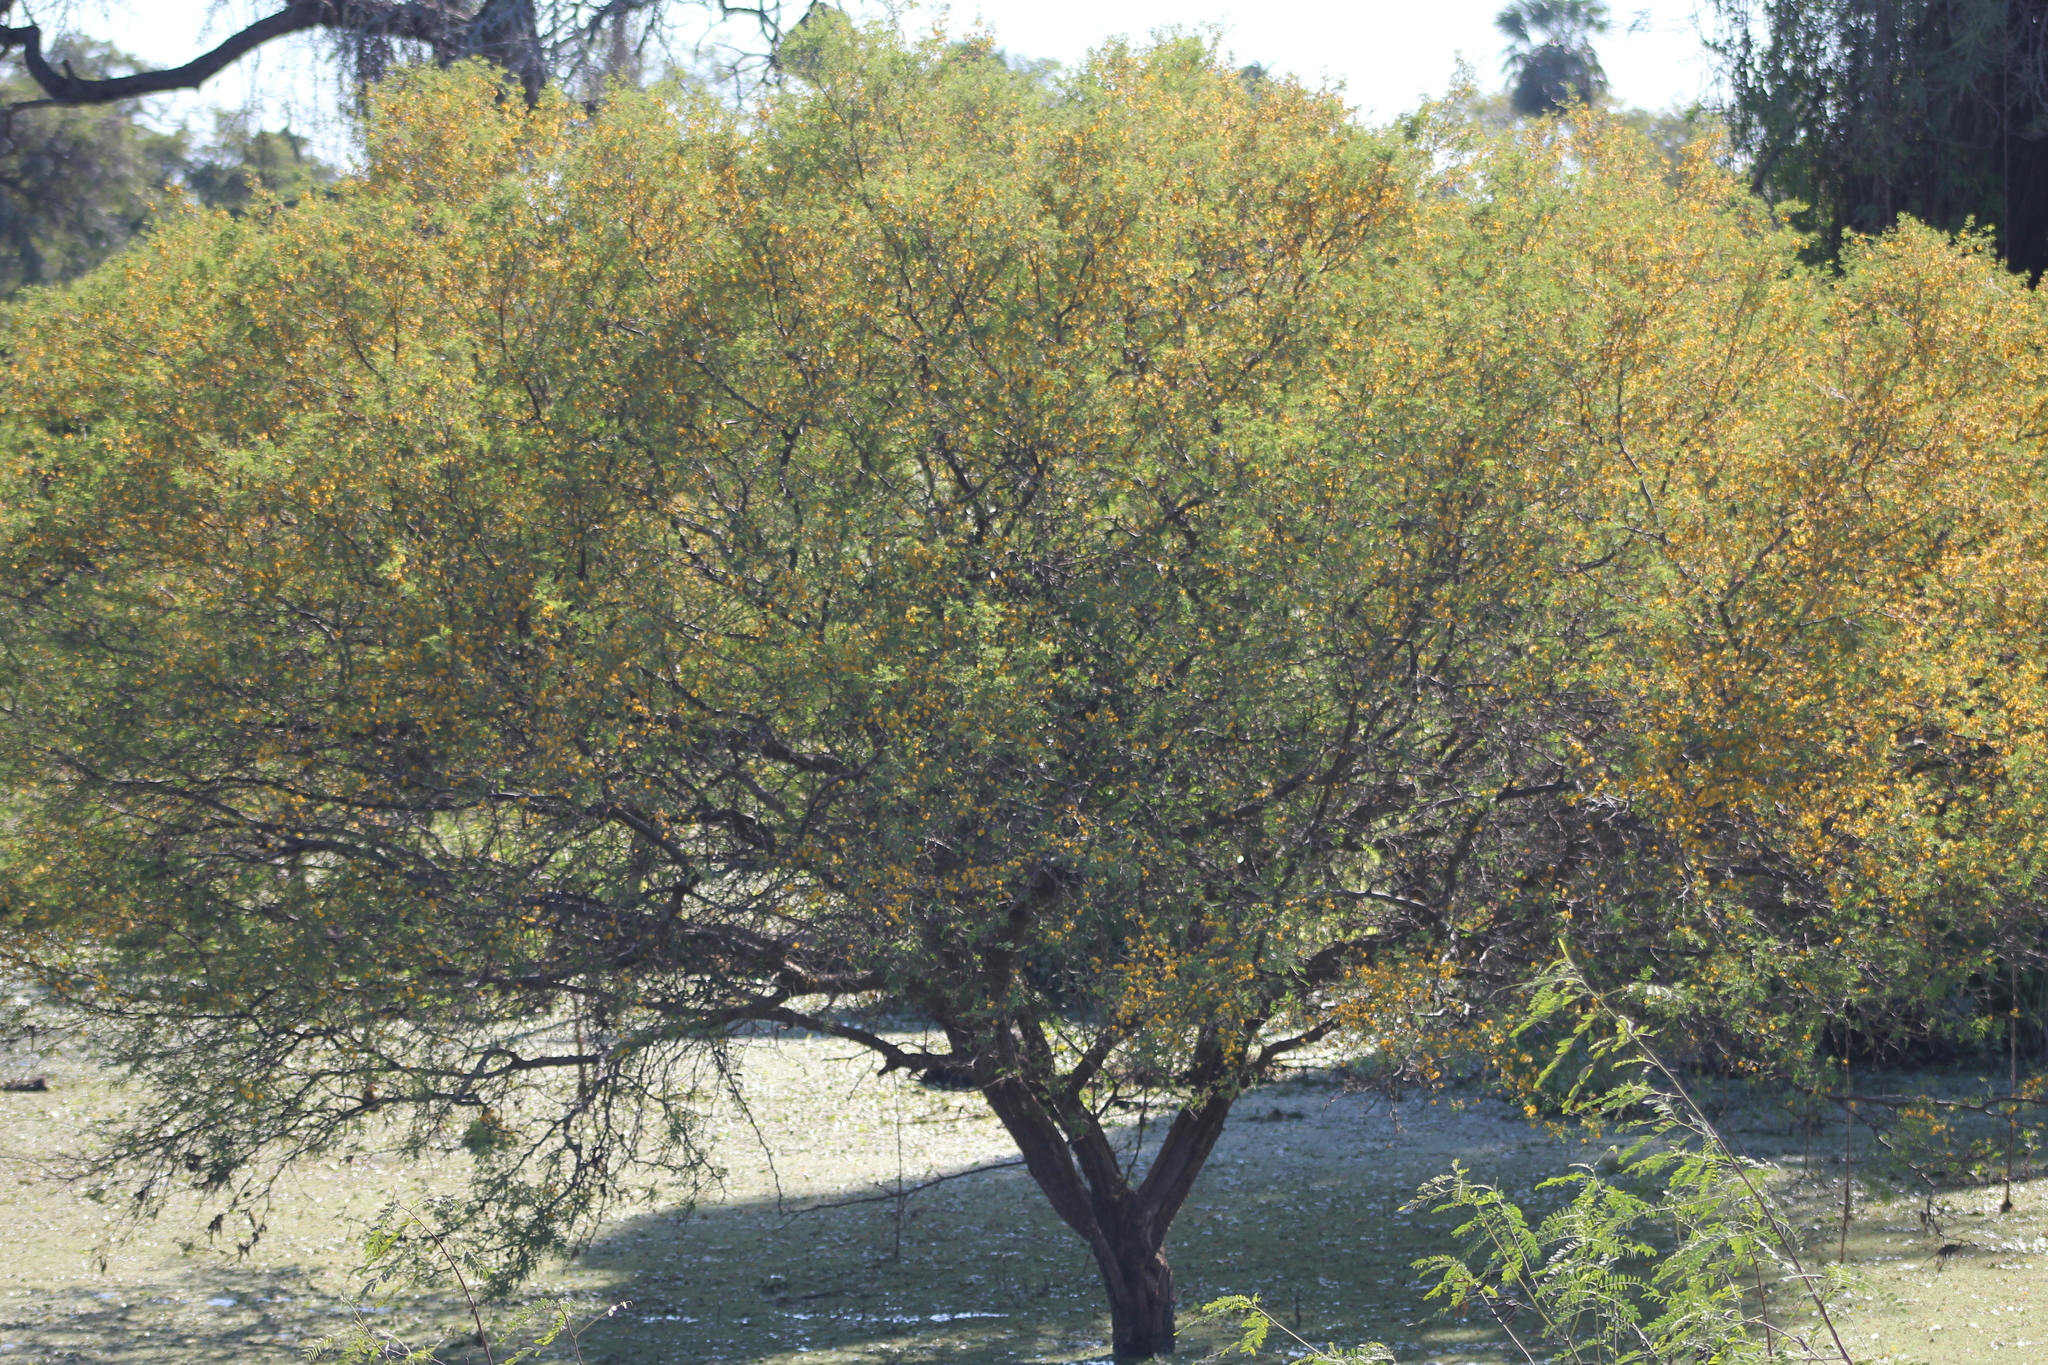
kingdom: Plantae
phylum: Tracheophyta
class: Magnoliopsida
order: Fabales
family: Fabaceae
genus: Vachellia
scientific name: Vachellia caven
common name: Roman cassie
